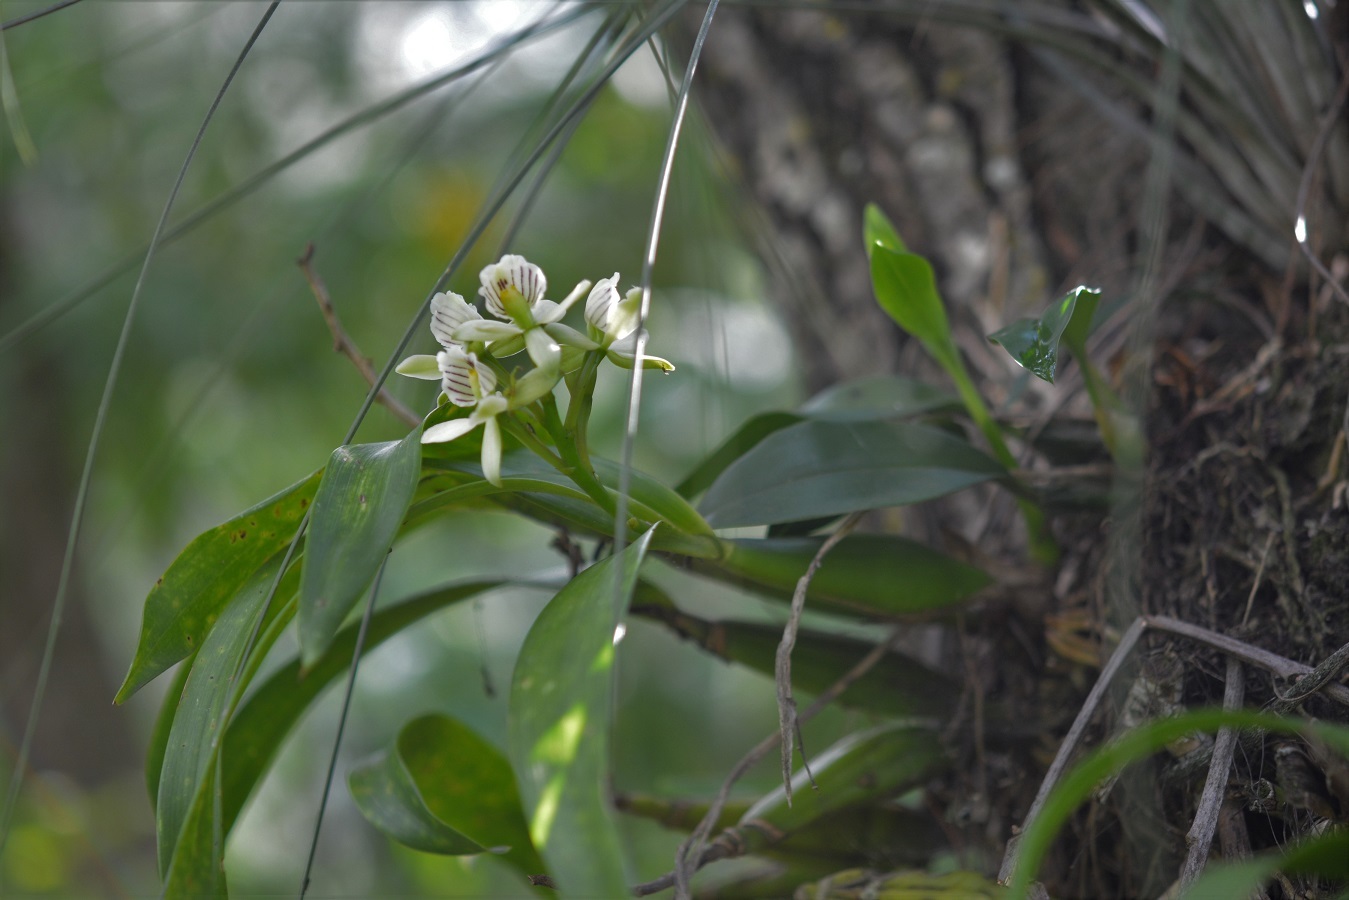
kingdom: Plantae
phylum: Tracheophyta
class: Liliopsida
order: Asparagales
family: Orchidaceae
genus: Prosthechea
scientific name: Prosthechea radiata
